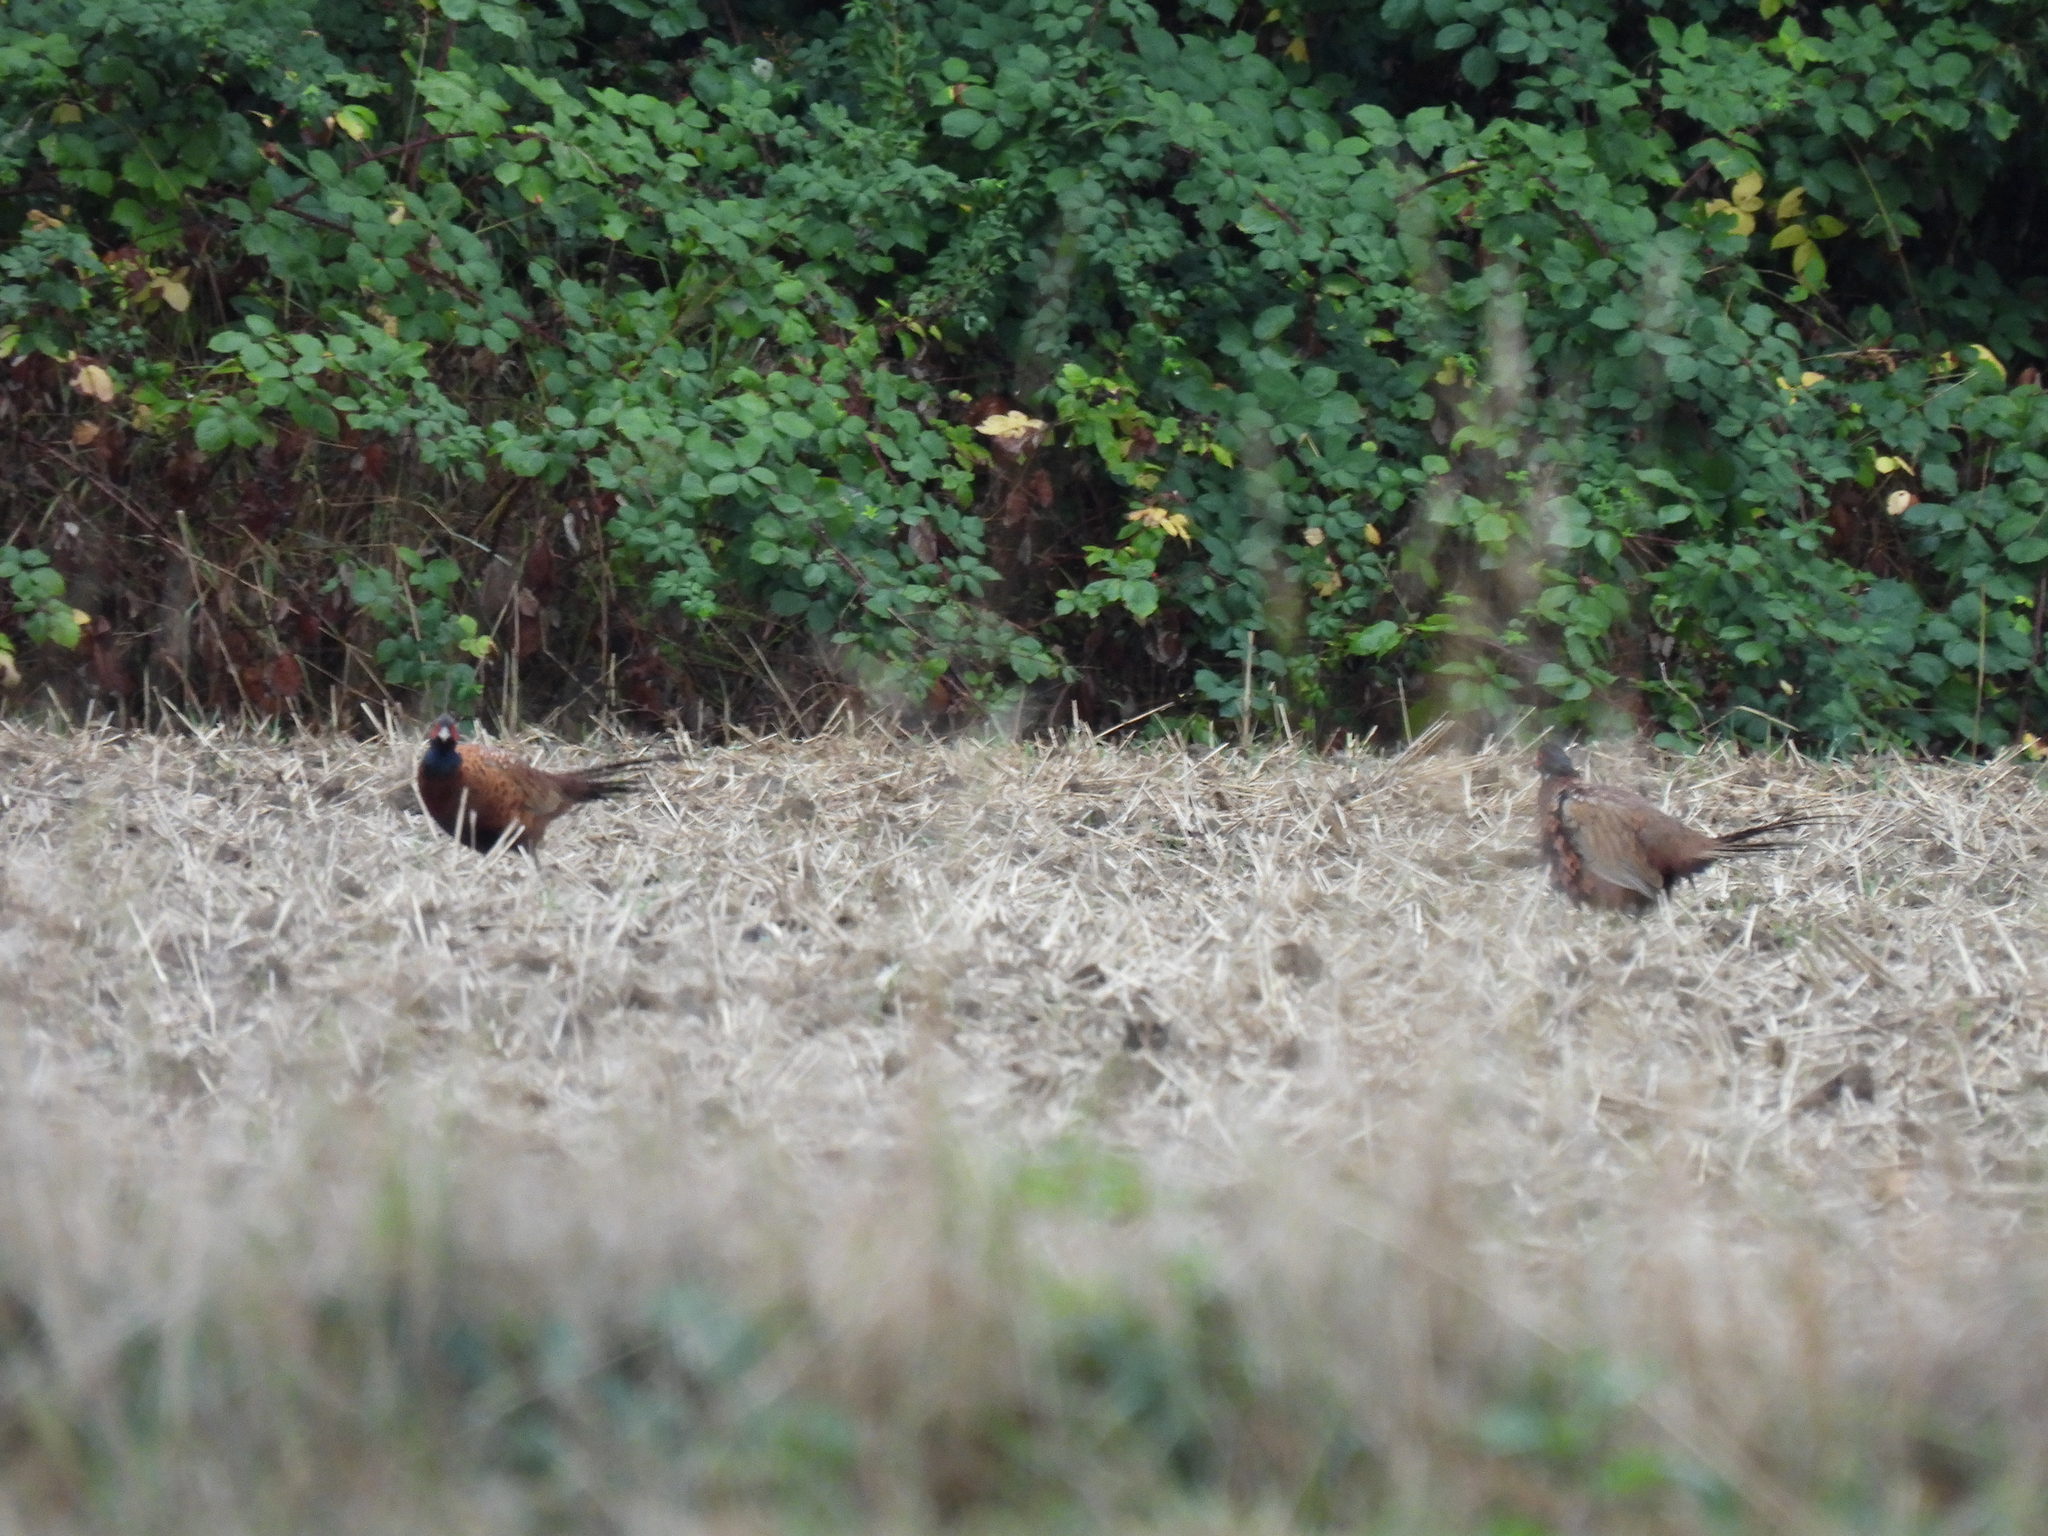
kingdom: Animalia
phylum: Chordata
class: Aves
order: Galliformes
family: Phasianidae
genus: Phasianus
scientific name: Phasianus colchicus
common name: Common pheasant
